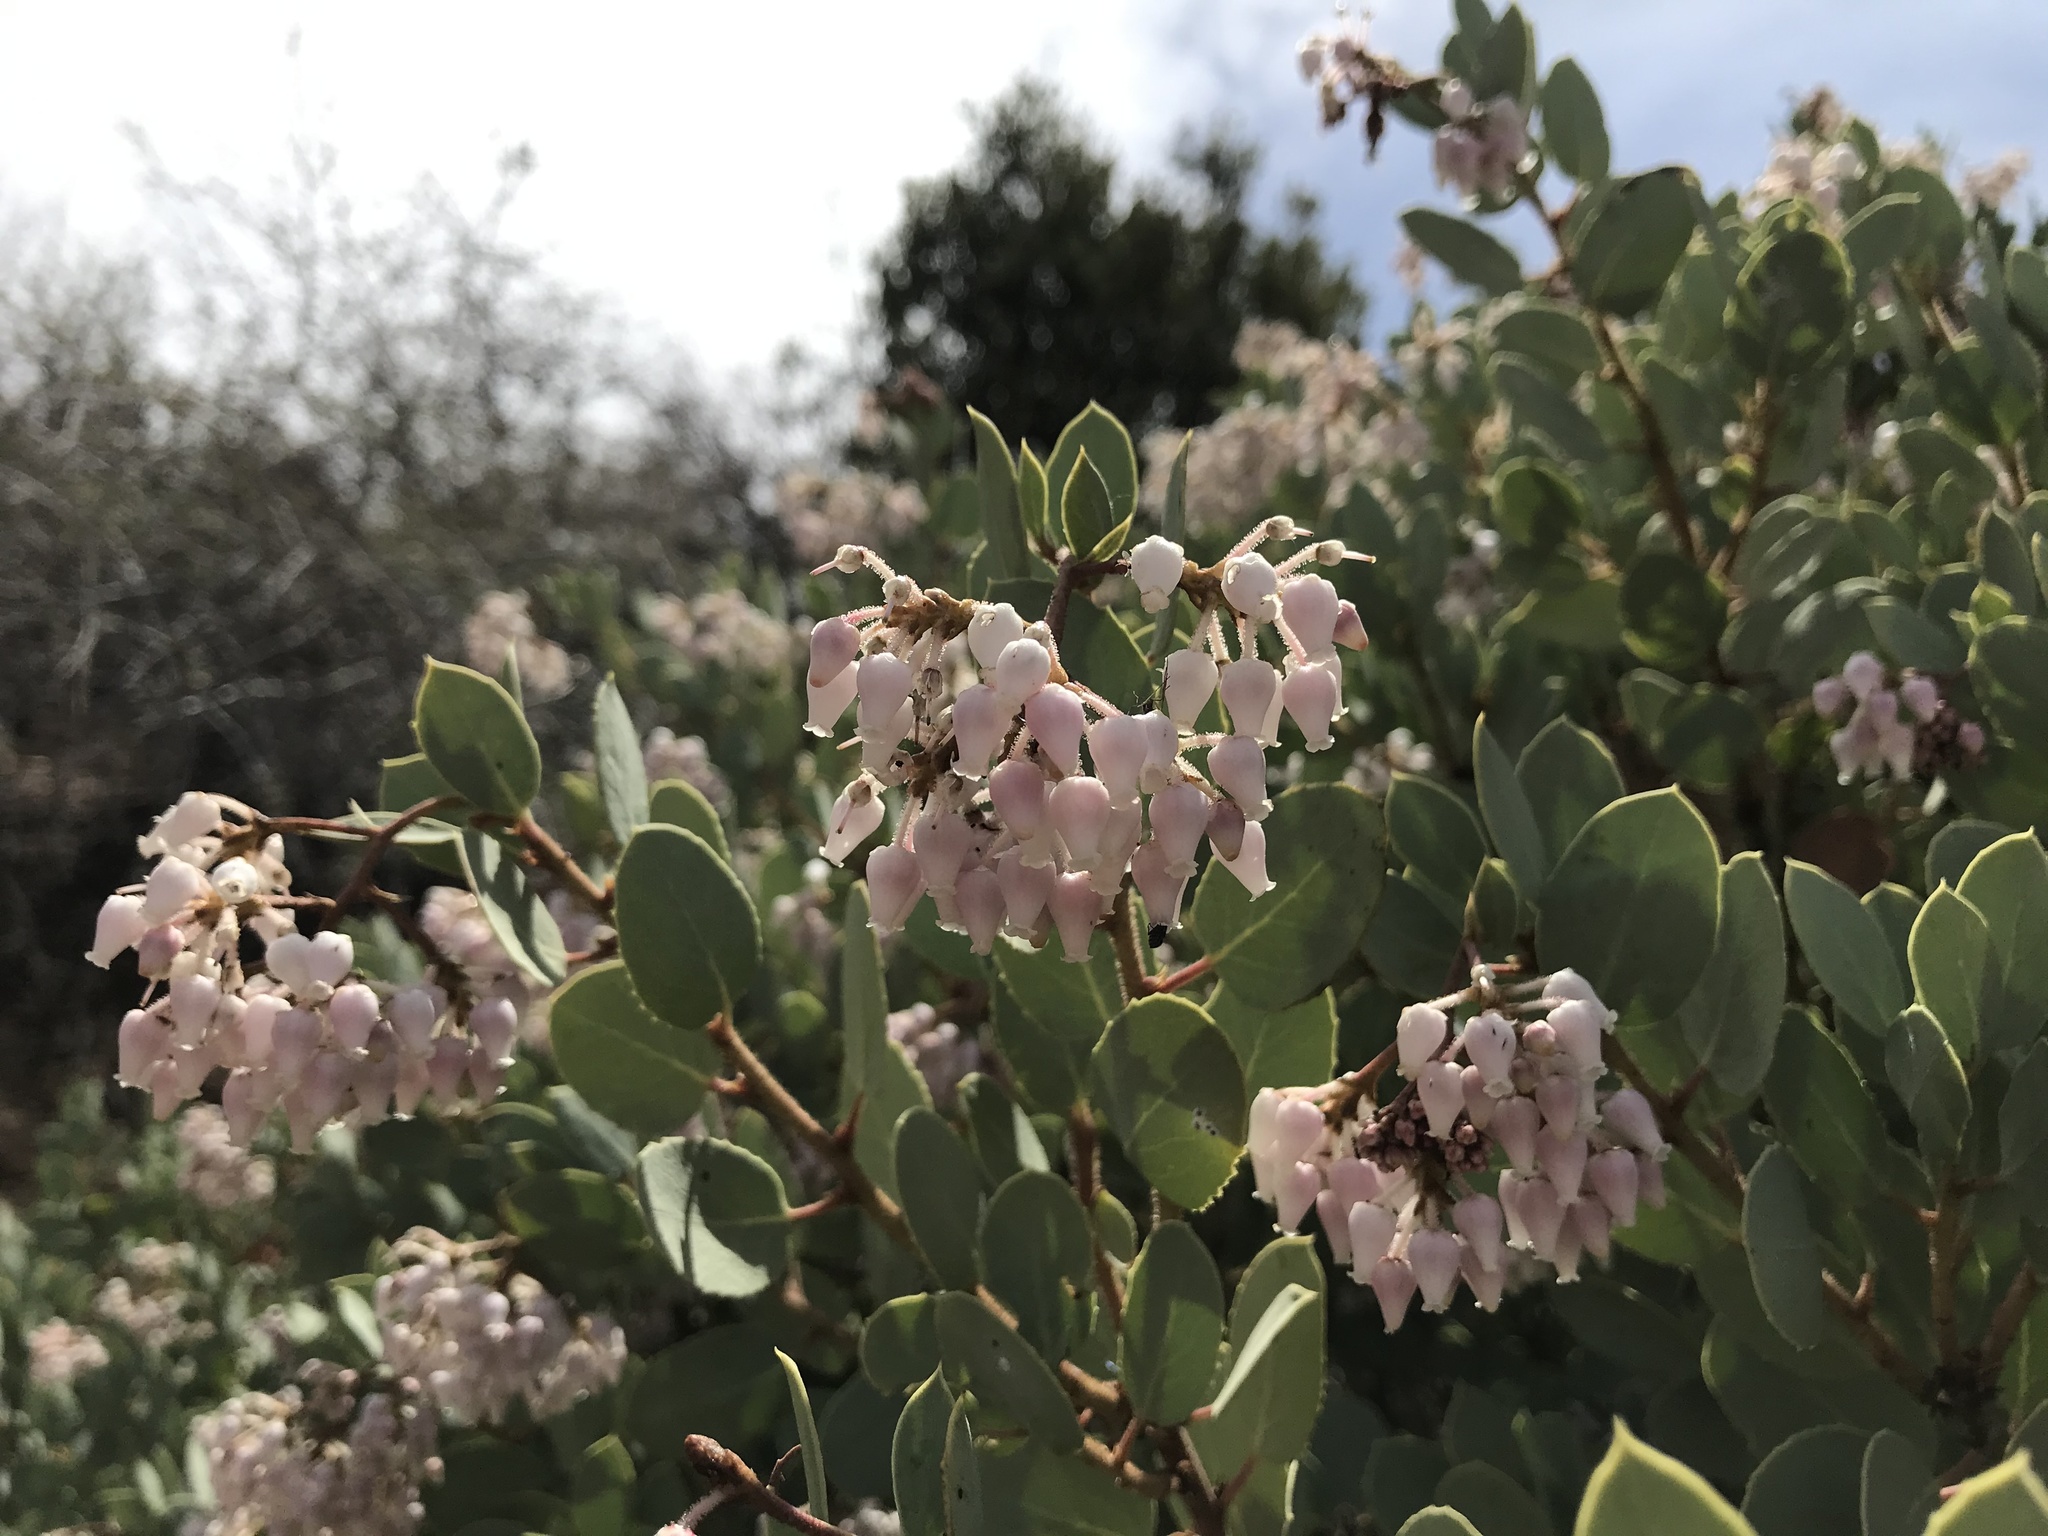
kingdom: Plantae
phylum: Tracheophyta
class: Magnoliopsida
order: Ericales
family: Ericaceae
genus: Arctostaphylos
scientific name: Arctostaphylos viscida
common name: White-leaf manzanita
